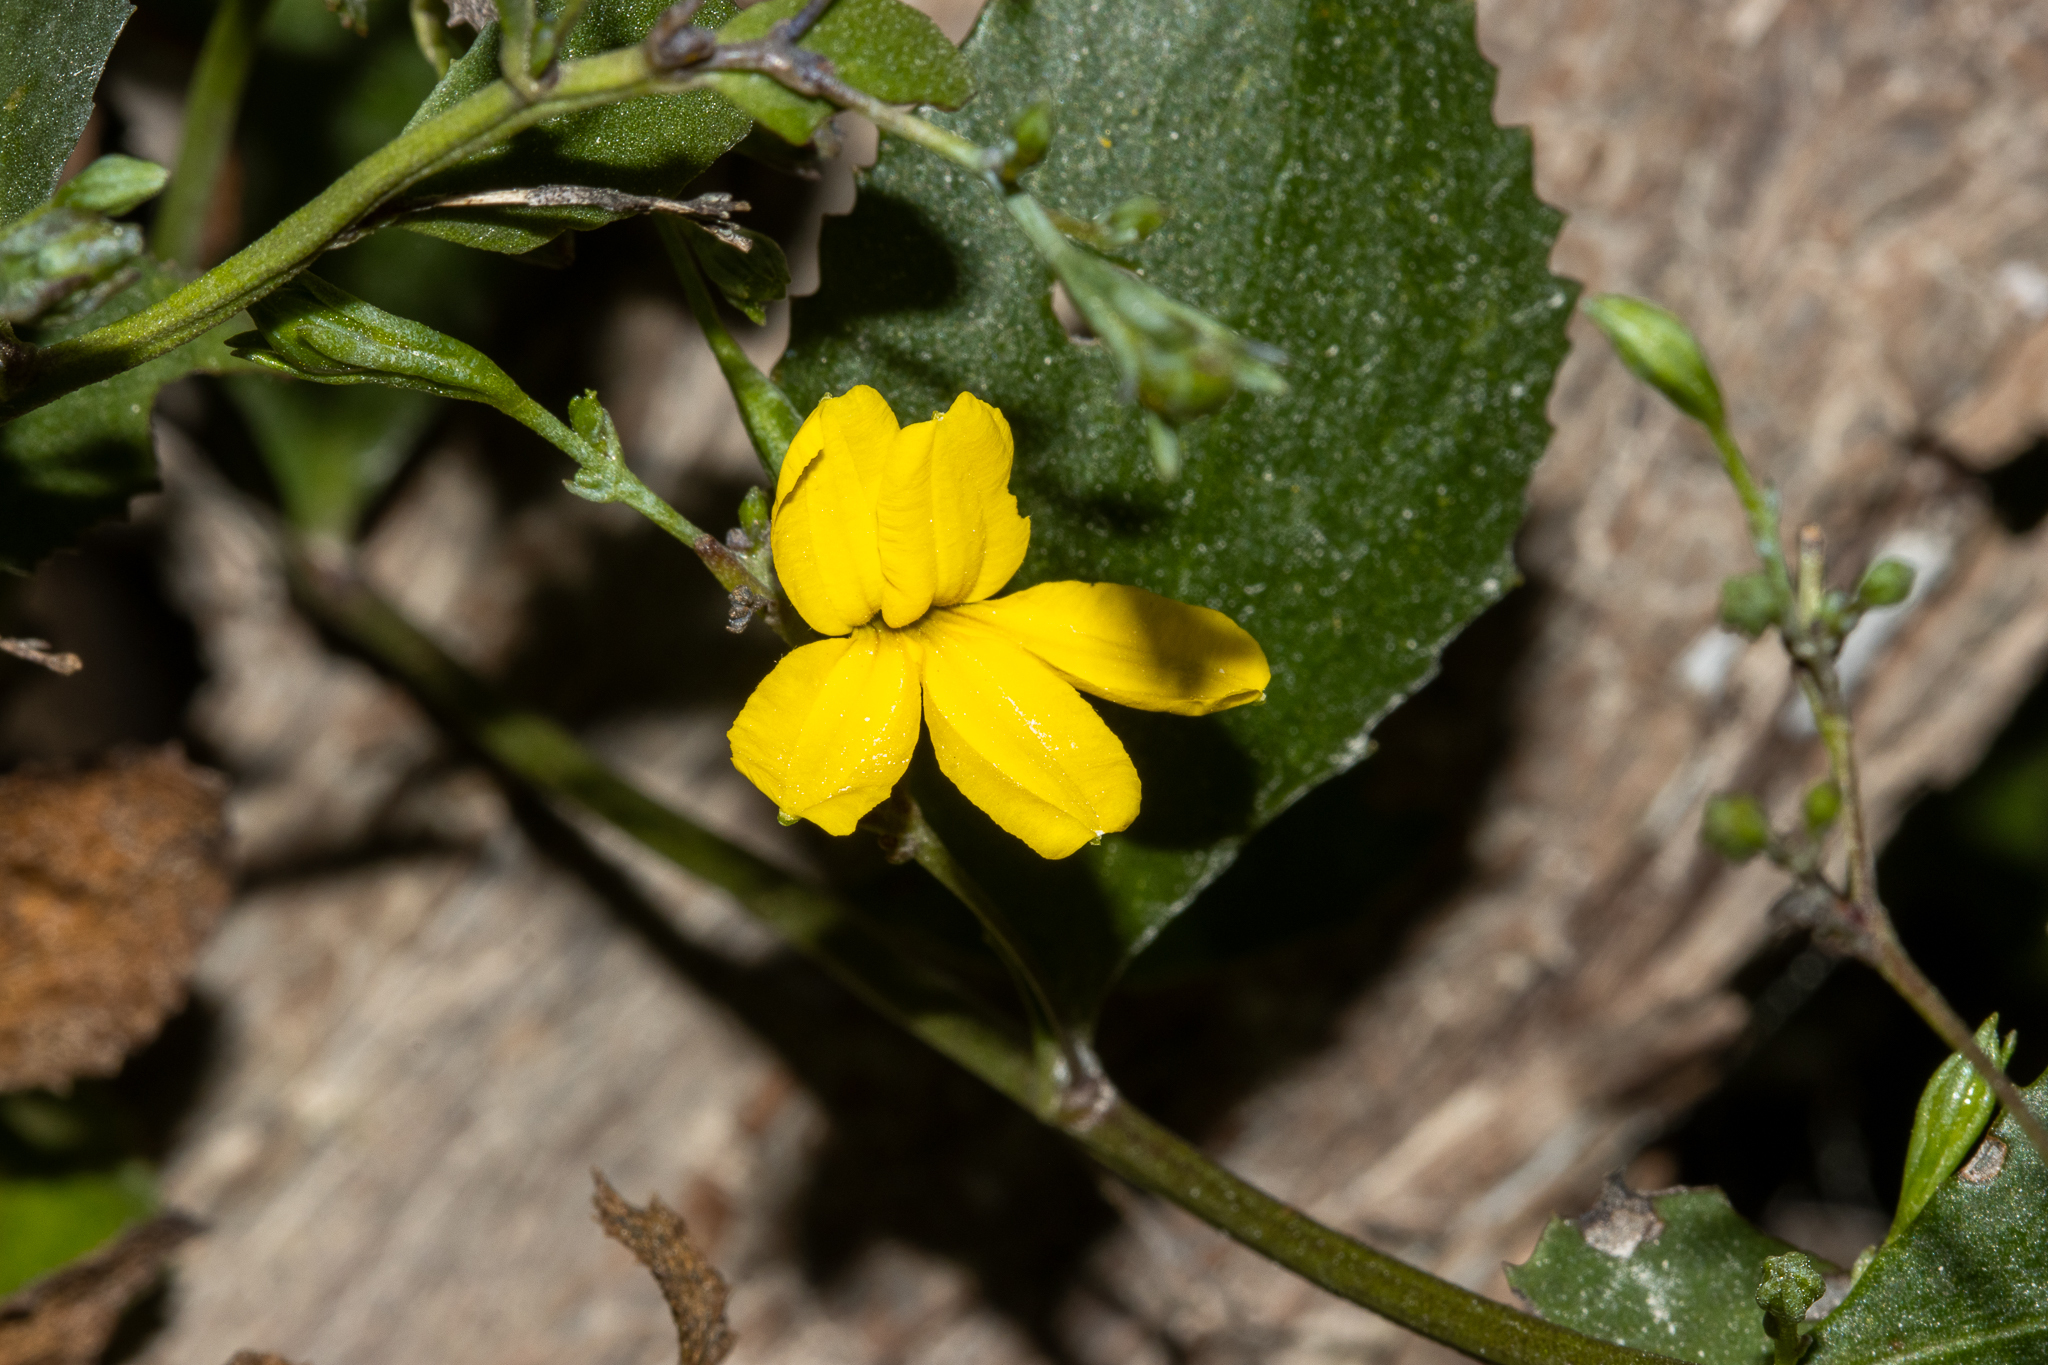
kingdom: Plantae
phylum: Tracheophyta
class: Magnoliopsida
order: Asterales
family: Goodeniaceae
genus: Goodenia
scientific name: Goodenia ovata
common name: Hop goodenia
